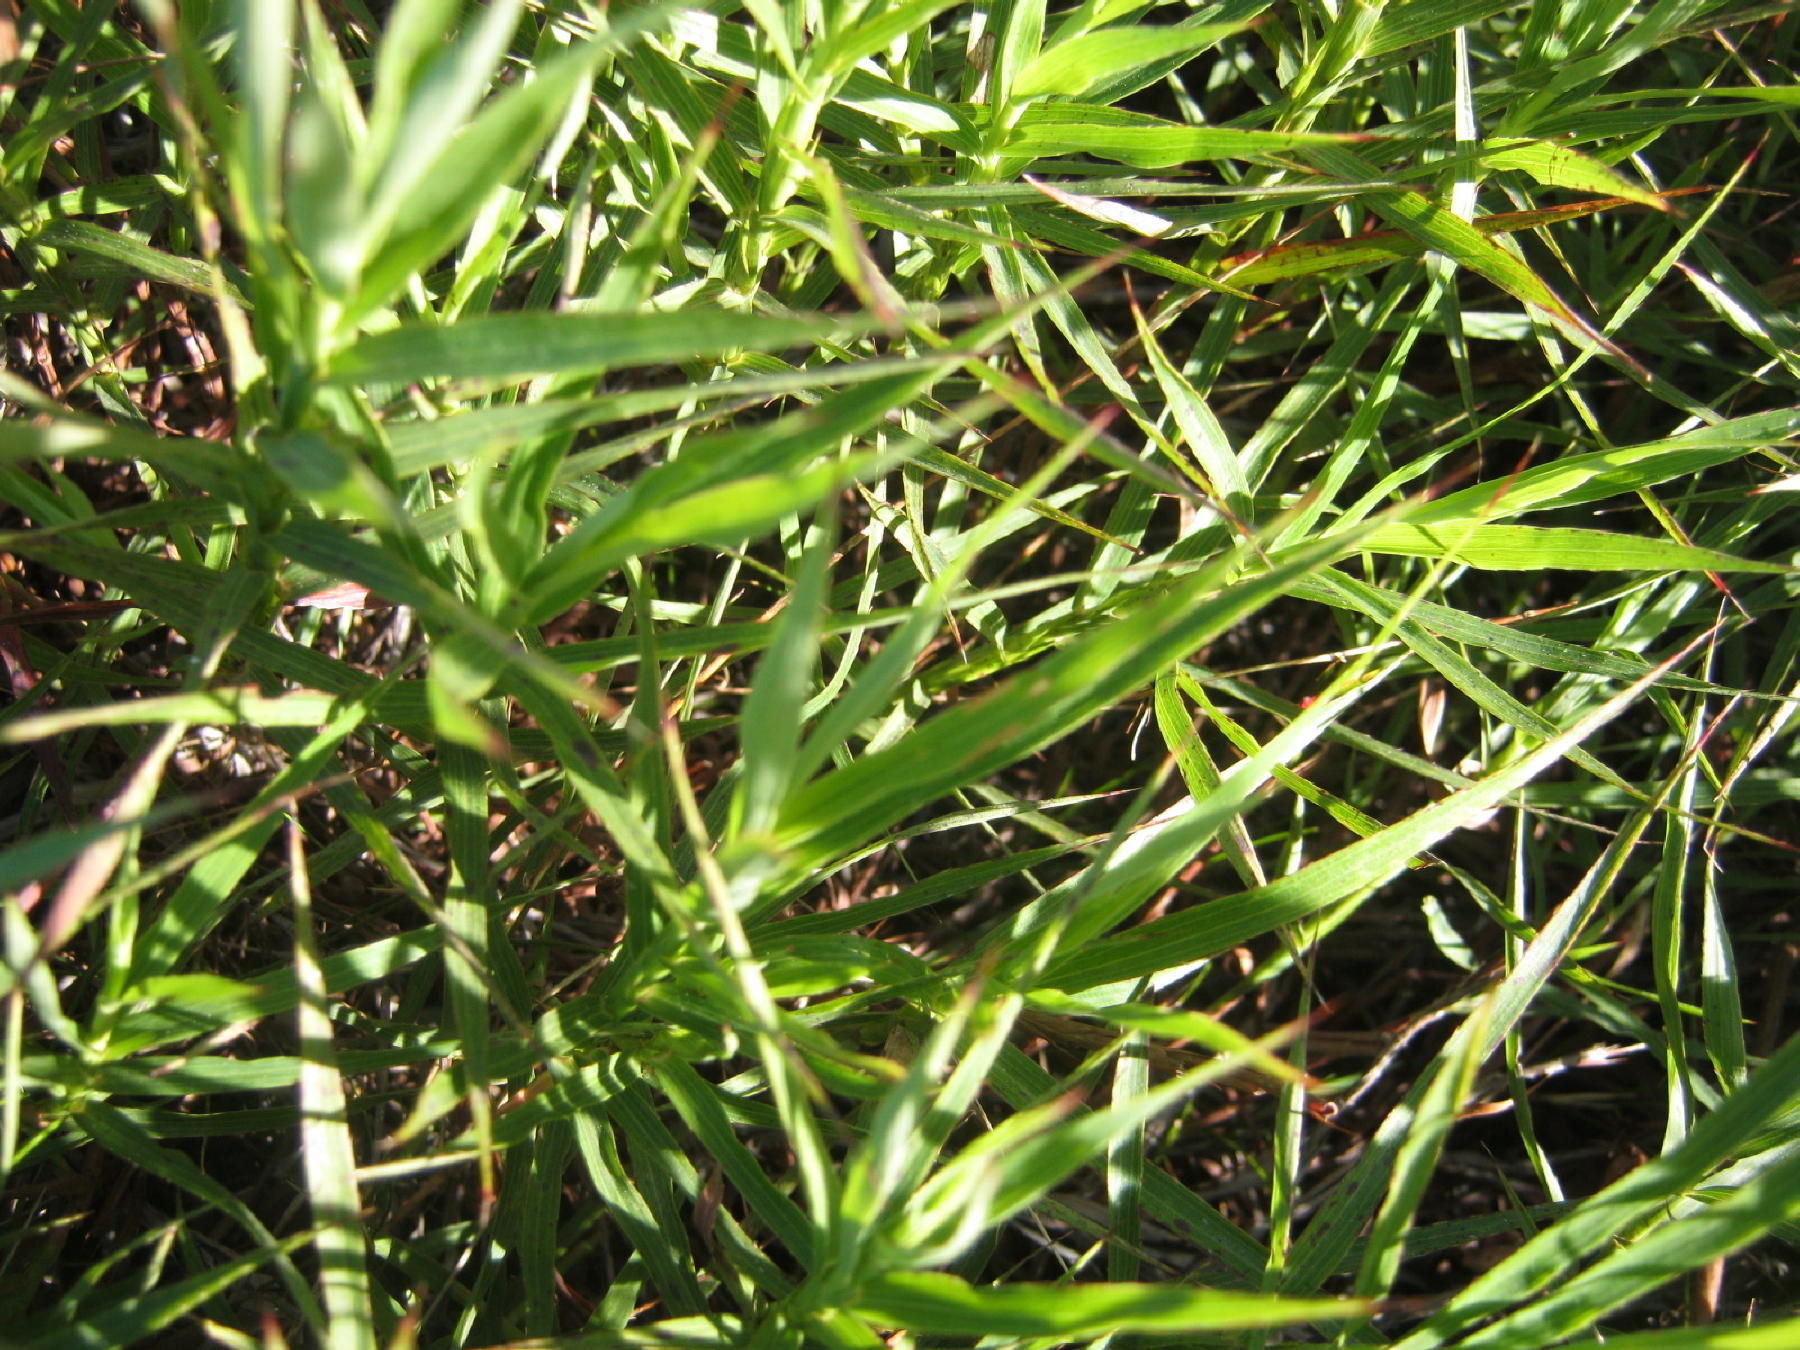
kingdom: Plantae
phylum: Tracheophyta
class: Magnoliopsida
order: Rosales
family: Rosaceae
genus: Cliffortia
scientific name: Cliffortia graminea
